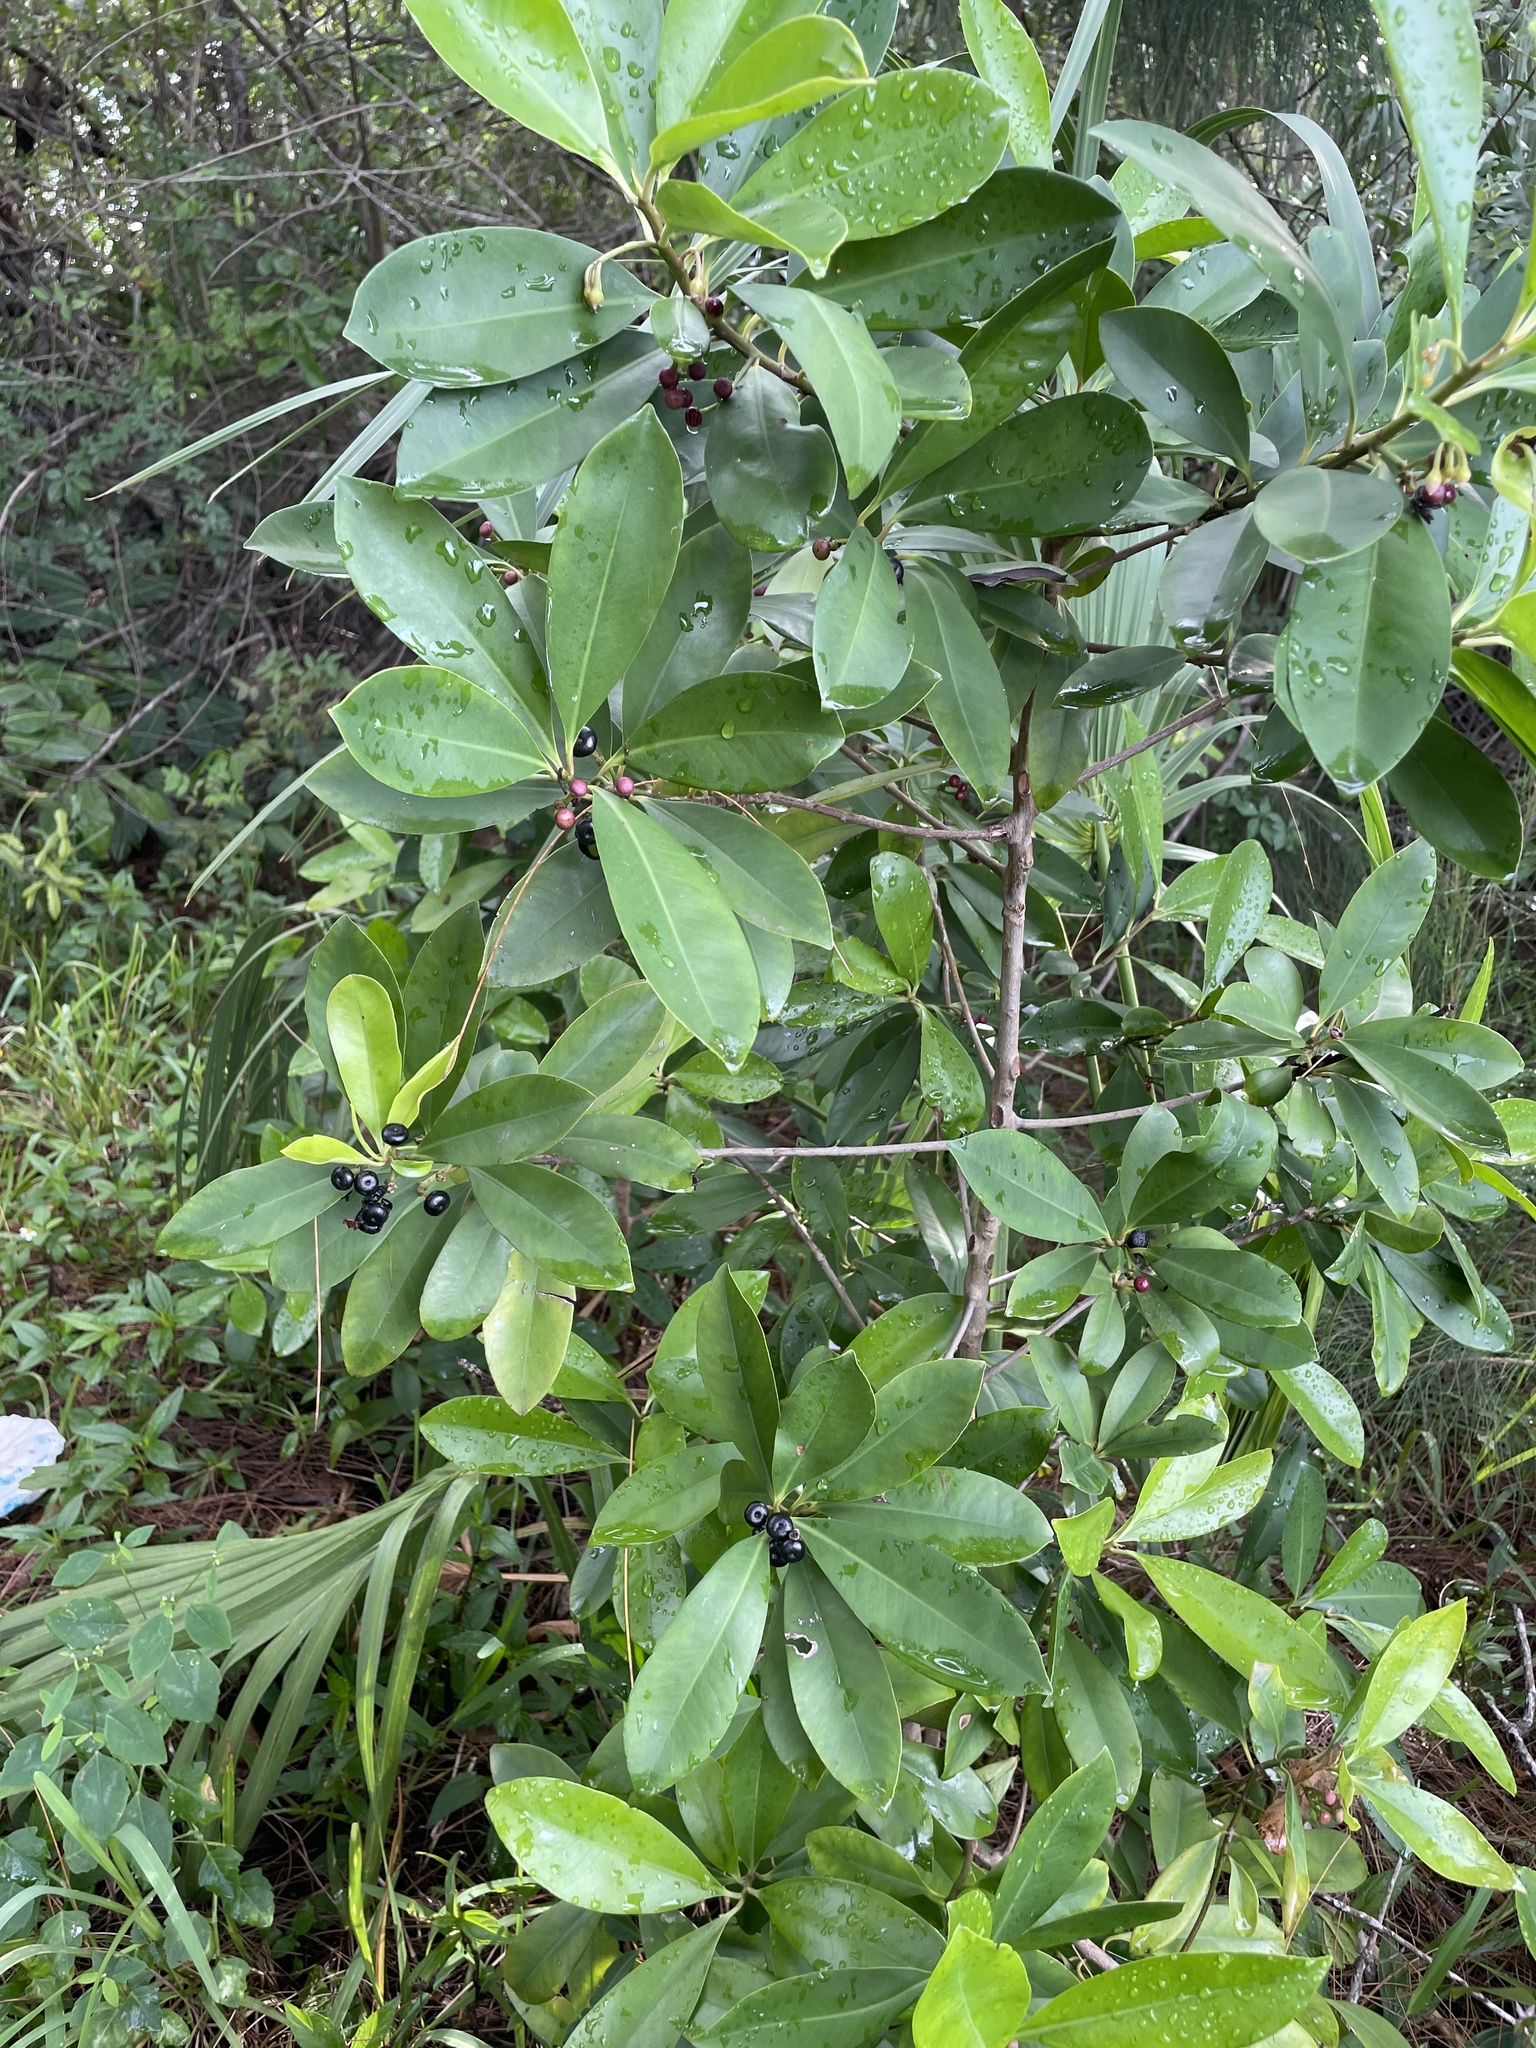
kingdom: Plantae
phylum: Tracheophyta
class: Magnoliopsida
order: Ericales
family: Primulaceae
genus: Ardisia
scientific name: Ardisia elliptica
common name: Shoebutton
